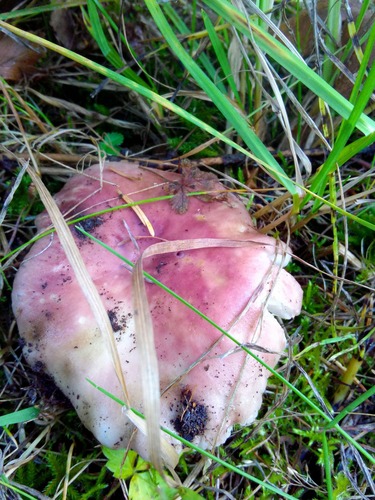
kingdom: Fungi
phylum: Basidiomycota
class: Agaricomycetes
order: Russulales
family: Russulaceae
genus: Russula
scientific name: Russula
